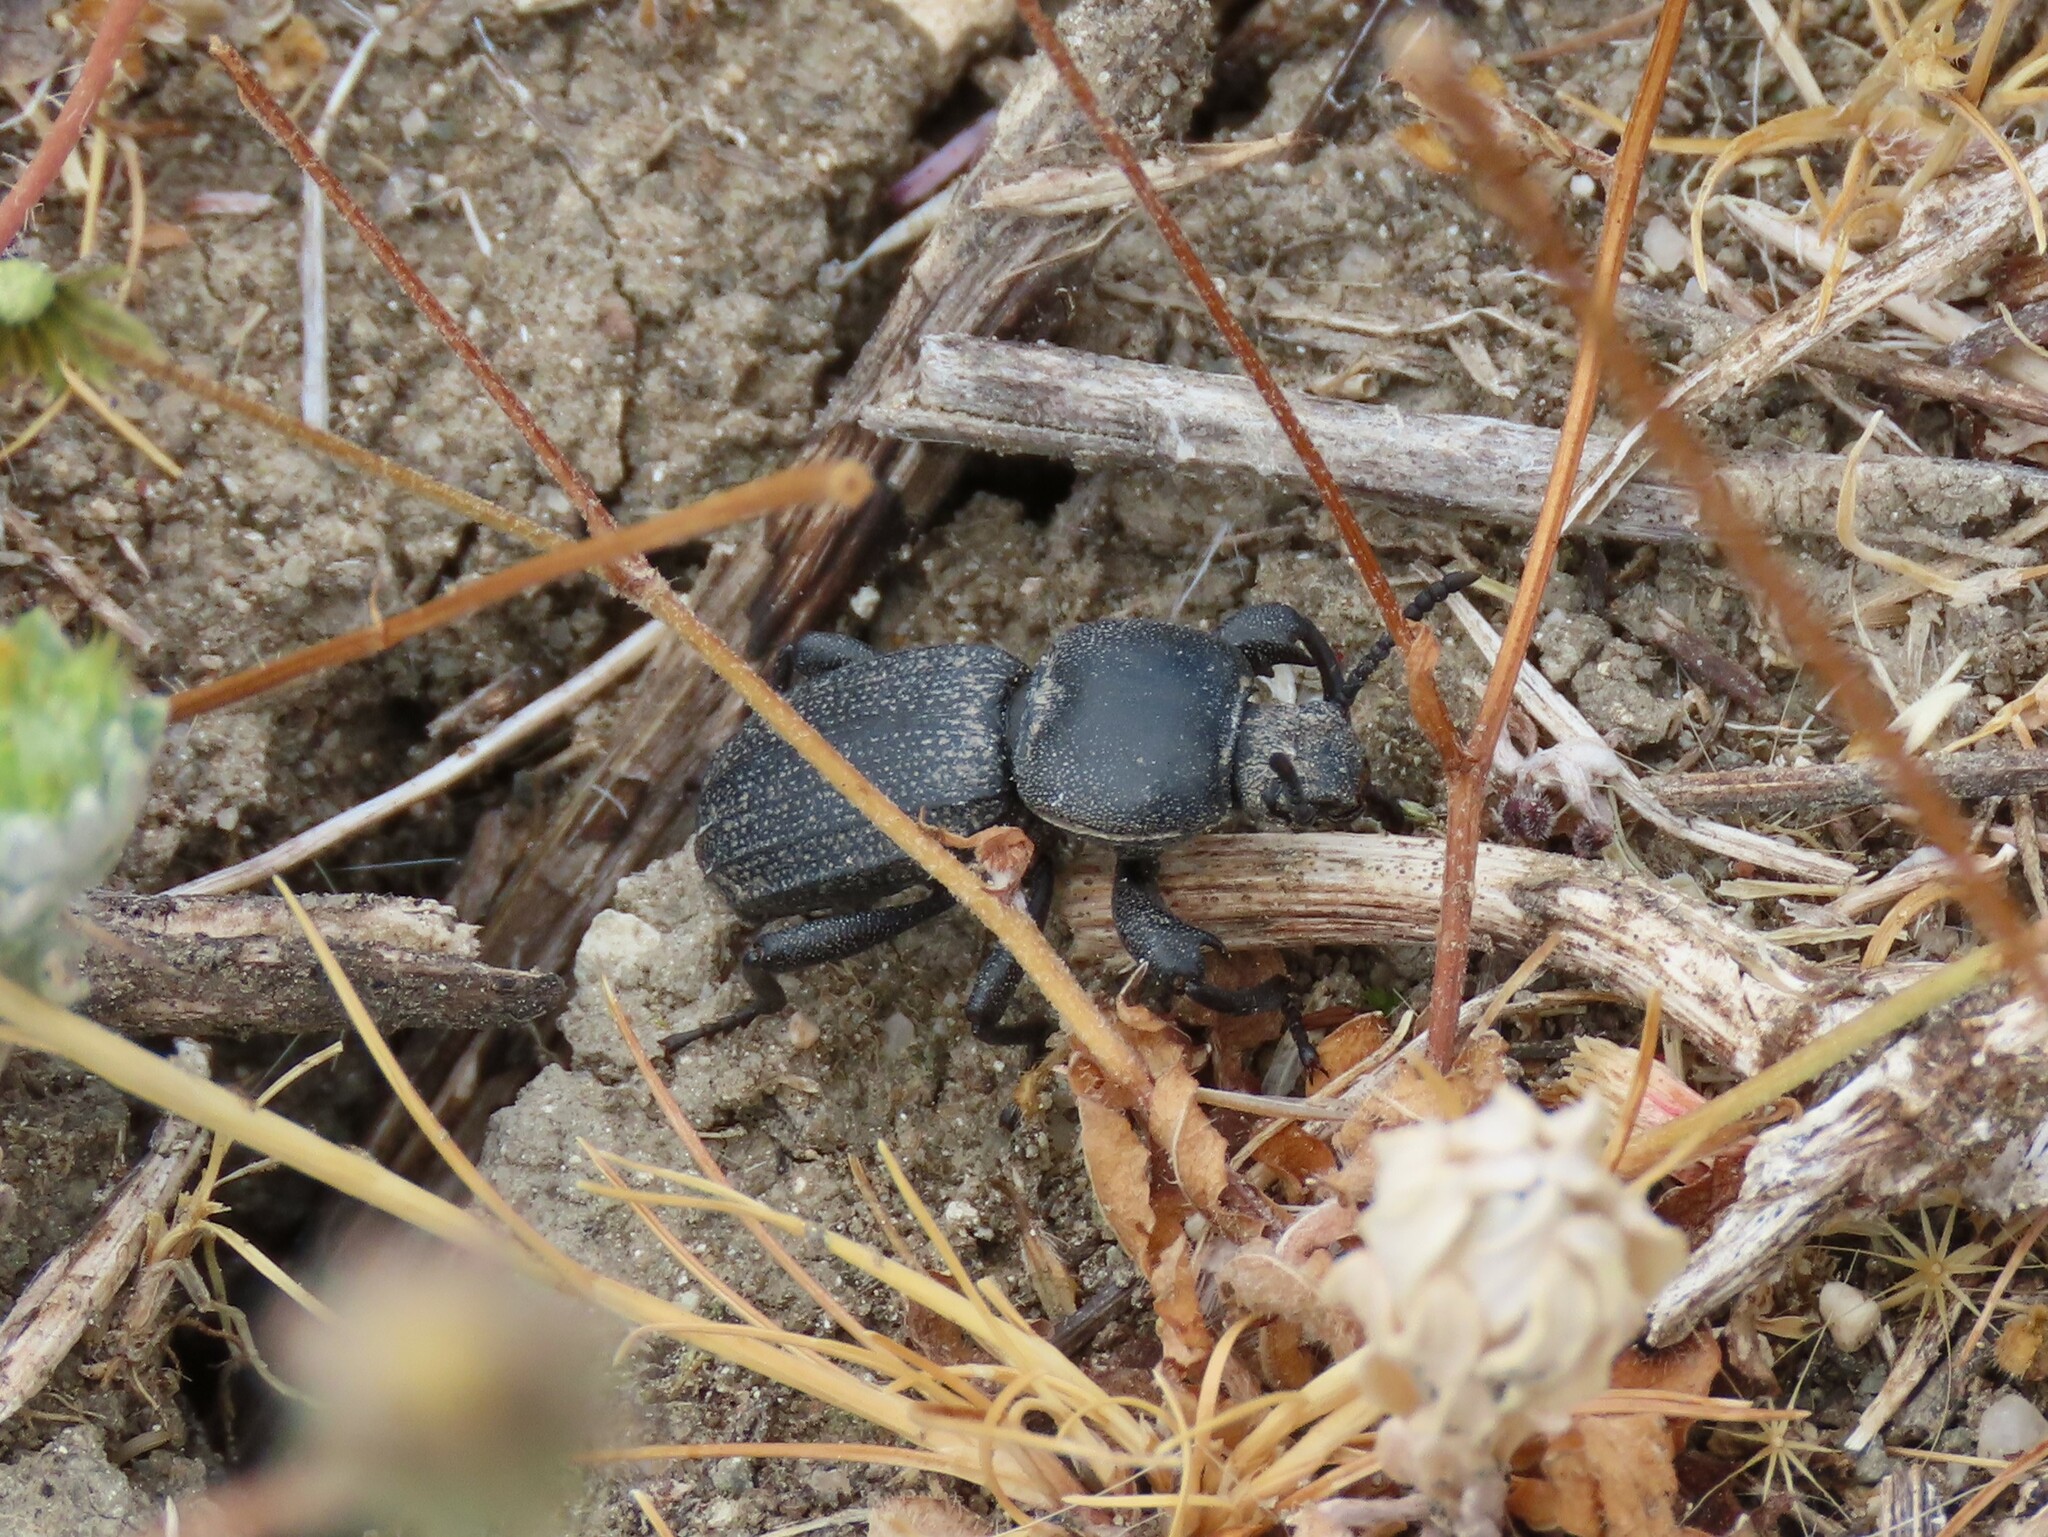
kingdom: Animalia
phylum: Arthropoda
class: Insecta
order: Coleoptera
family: Tenebrionidae
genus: Scaurus
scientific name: Scaurus uncinus
